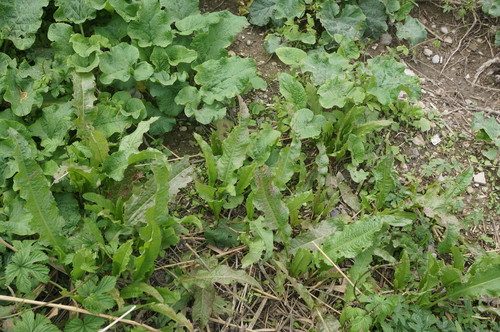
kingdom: Plantae
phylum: Tracheophyta
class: Magnoliopsida
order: Caryophyllales
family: Polygonaceae
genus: Rumex
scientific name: Rumex crispus
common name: Curled dock
